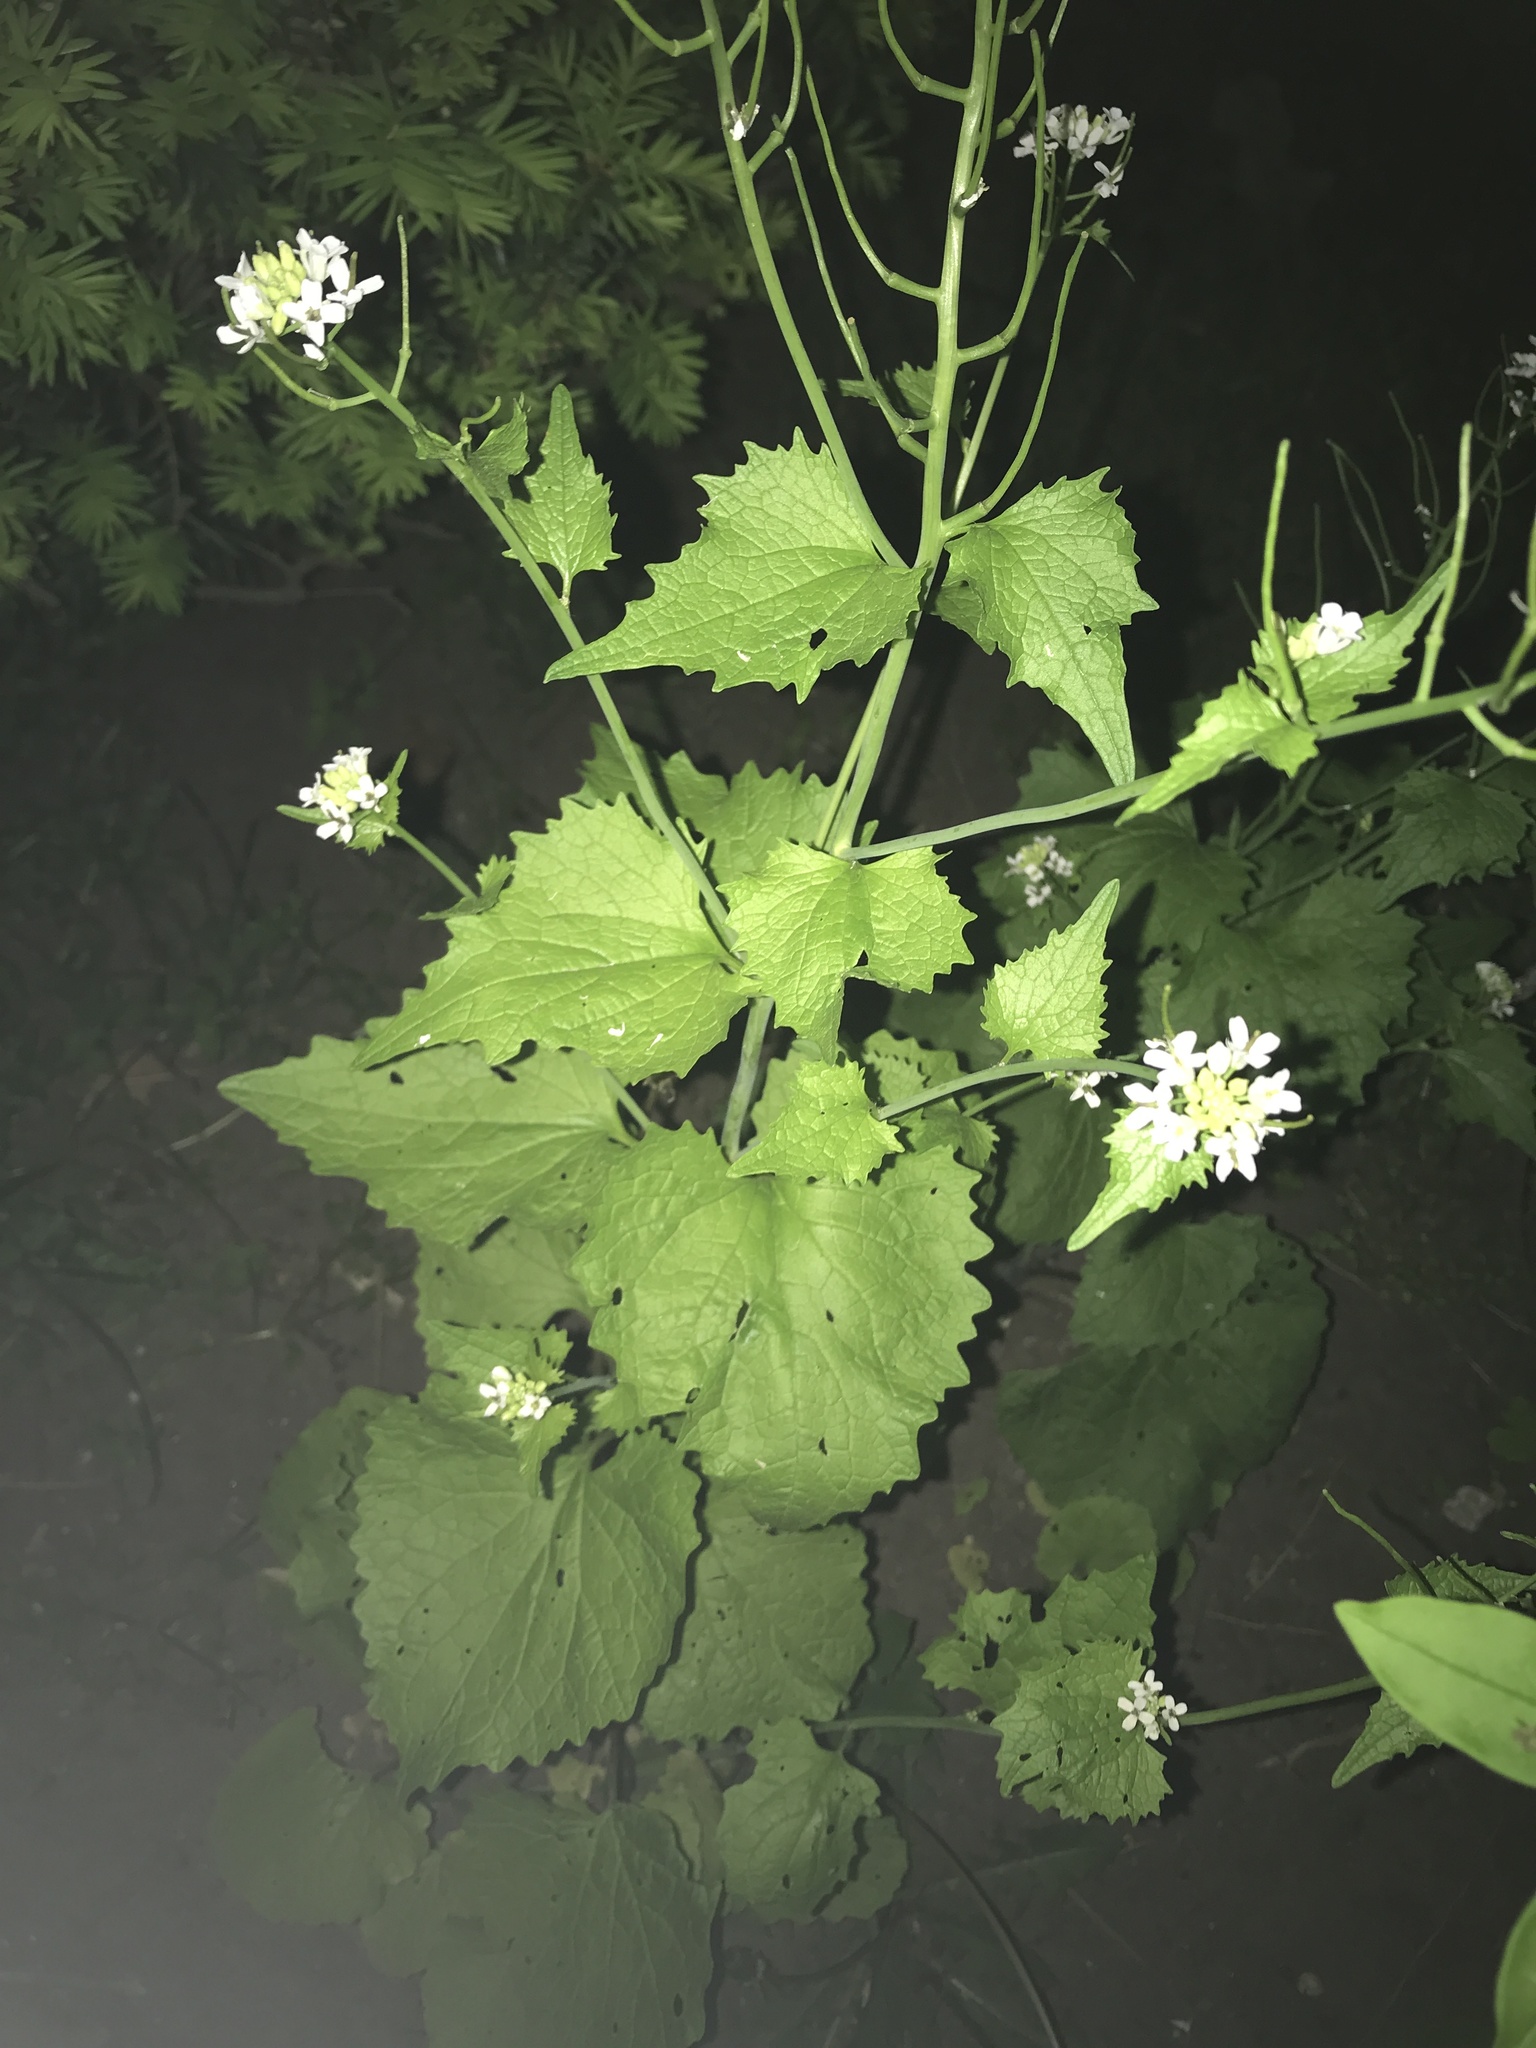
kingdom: Plantae
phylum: Tracheophyta
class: Magnoliopsida
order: Brassicales
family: Brassicaceae
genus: Alliaria
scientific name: Alliaria petiolata
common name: Garlic mustard
